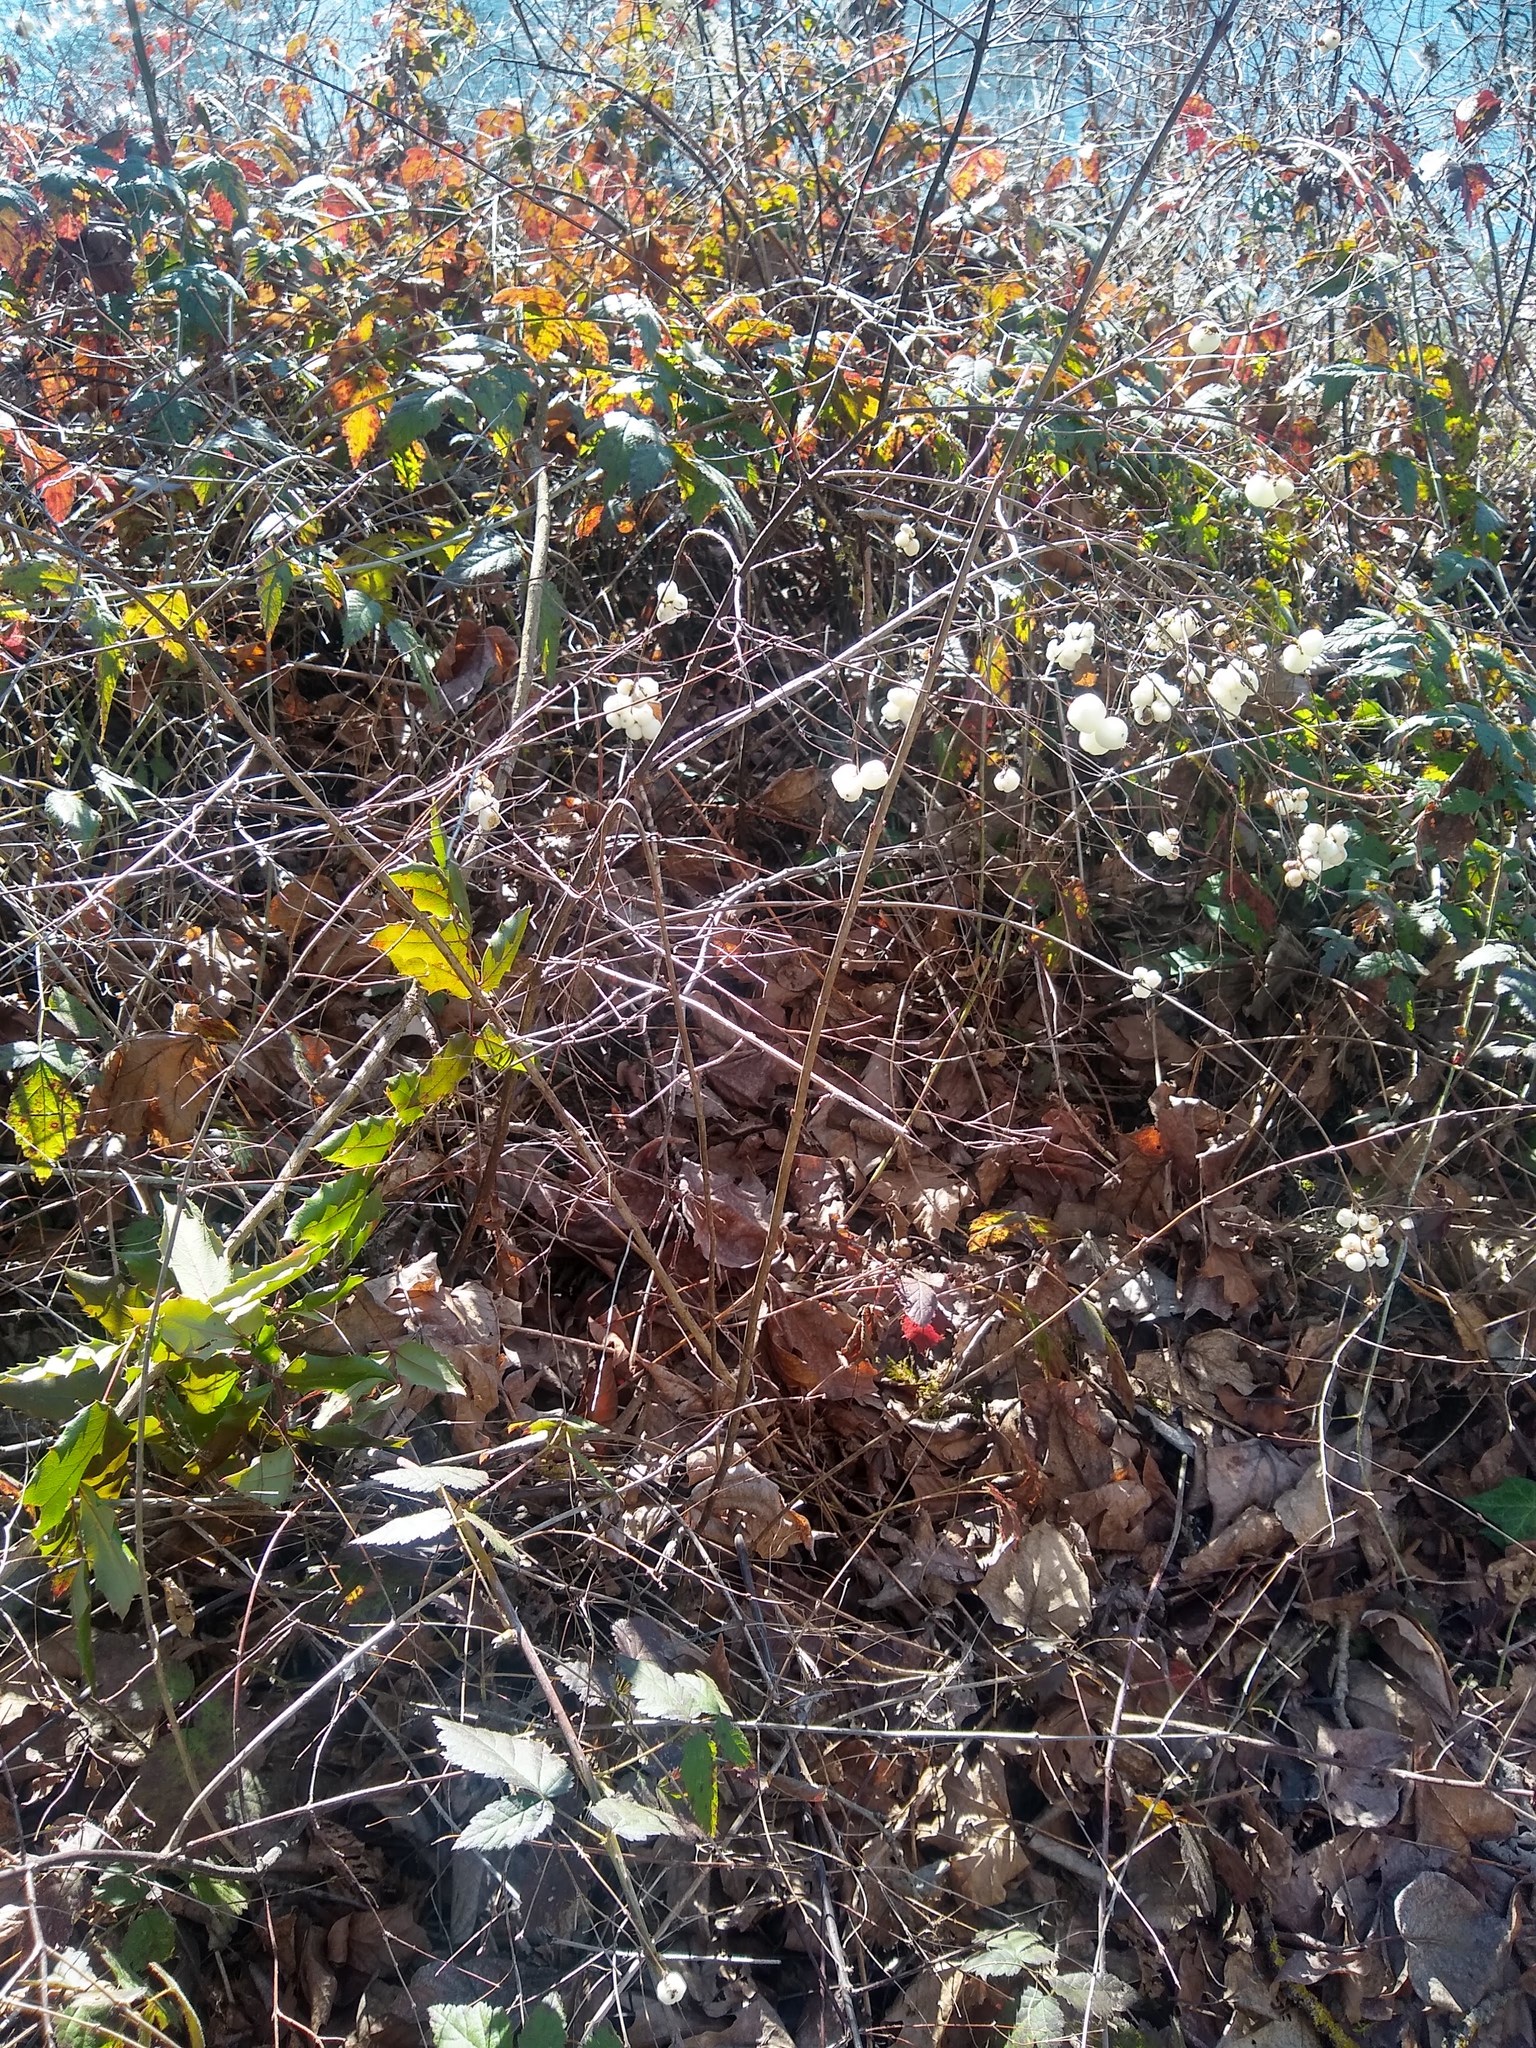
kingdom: Plantae
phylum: Tracheophyta
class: Magnoliopsida
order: Dipsacales
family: Caprifoliaceae
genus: Symphoricarpos
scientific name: Symphoricarpos albus
